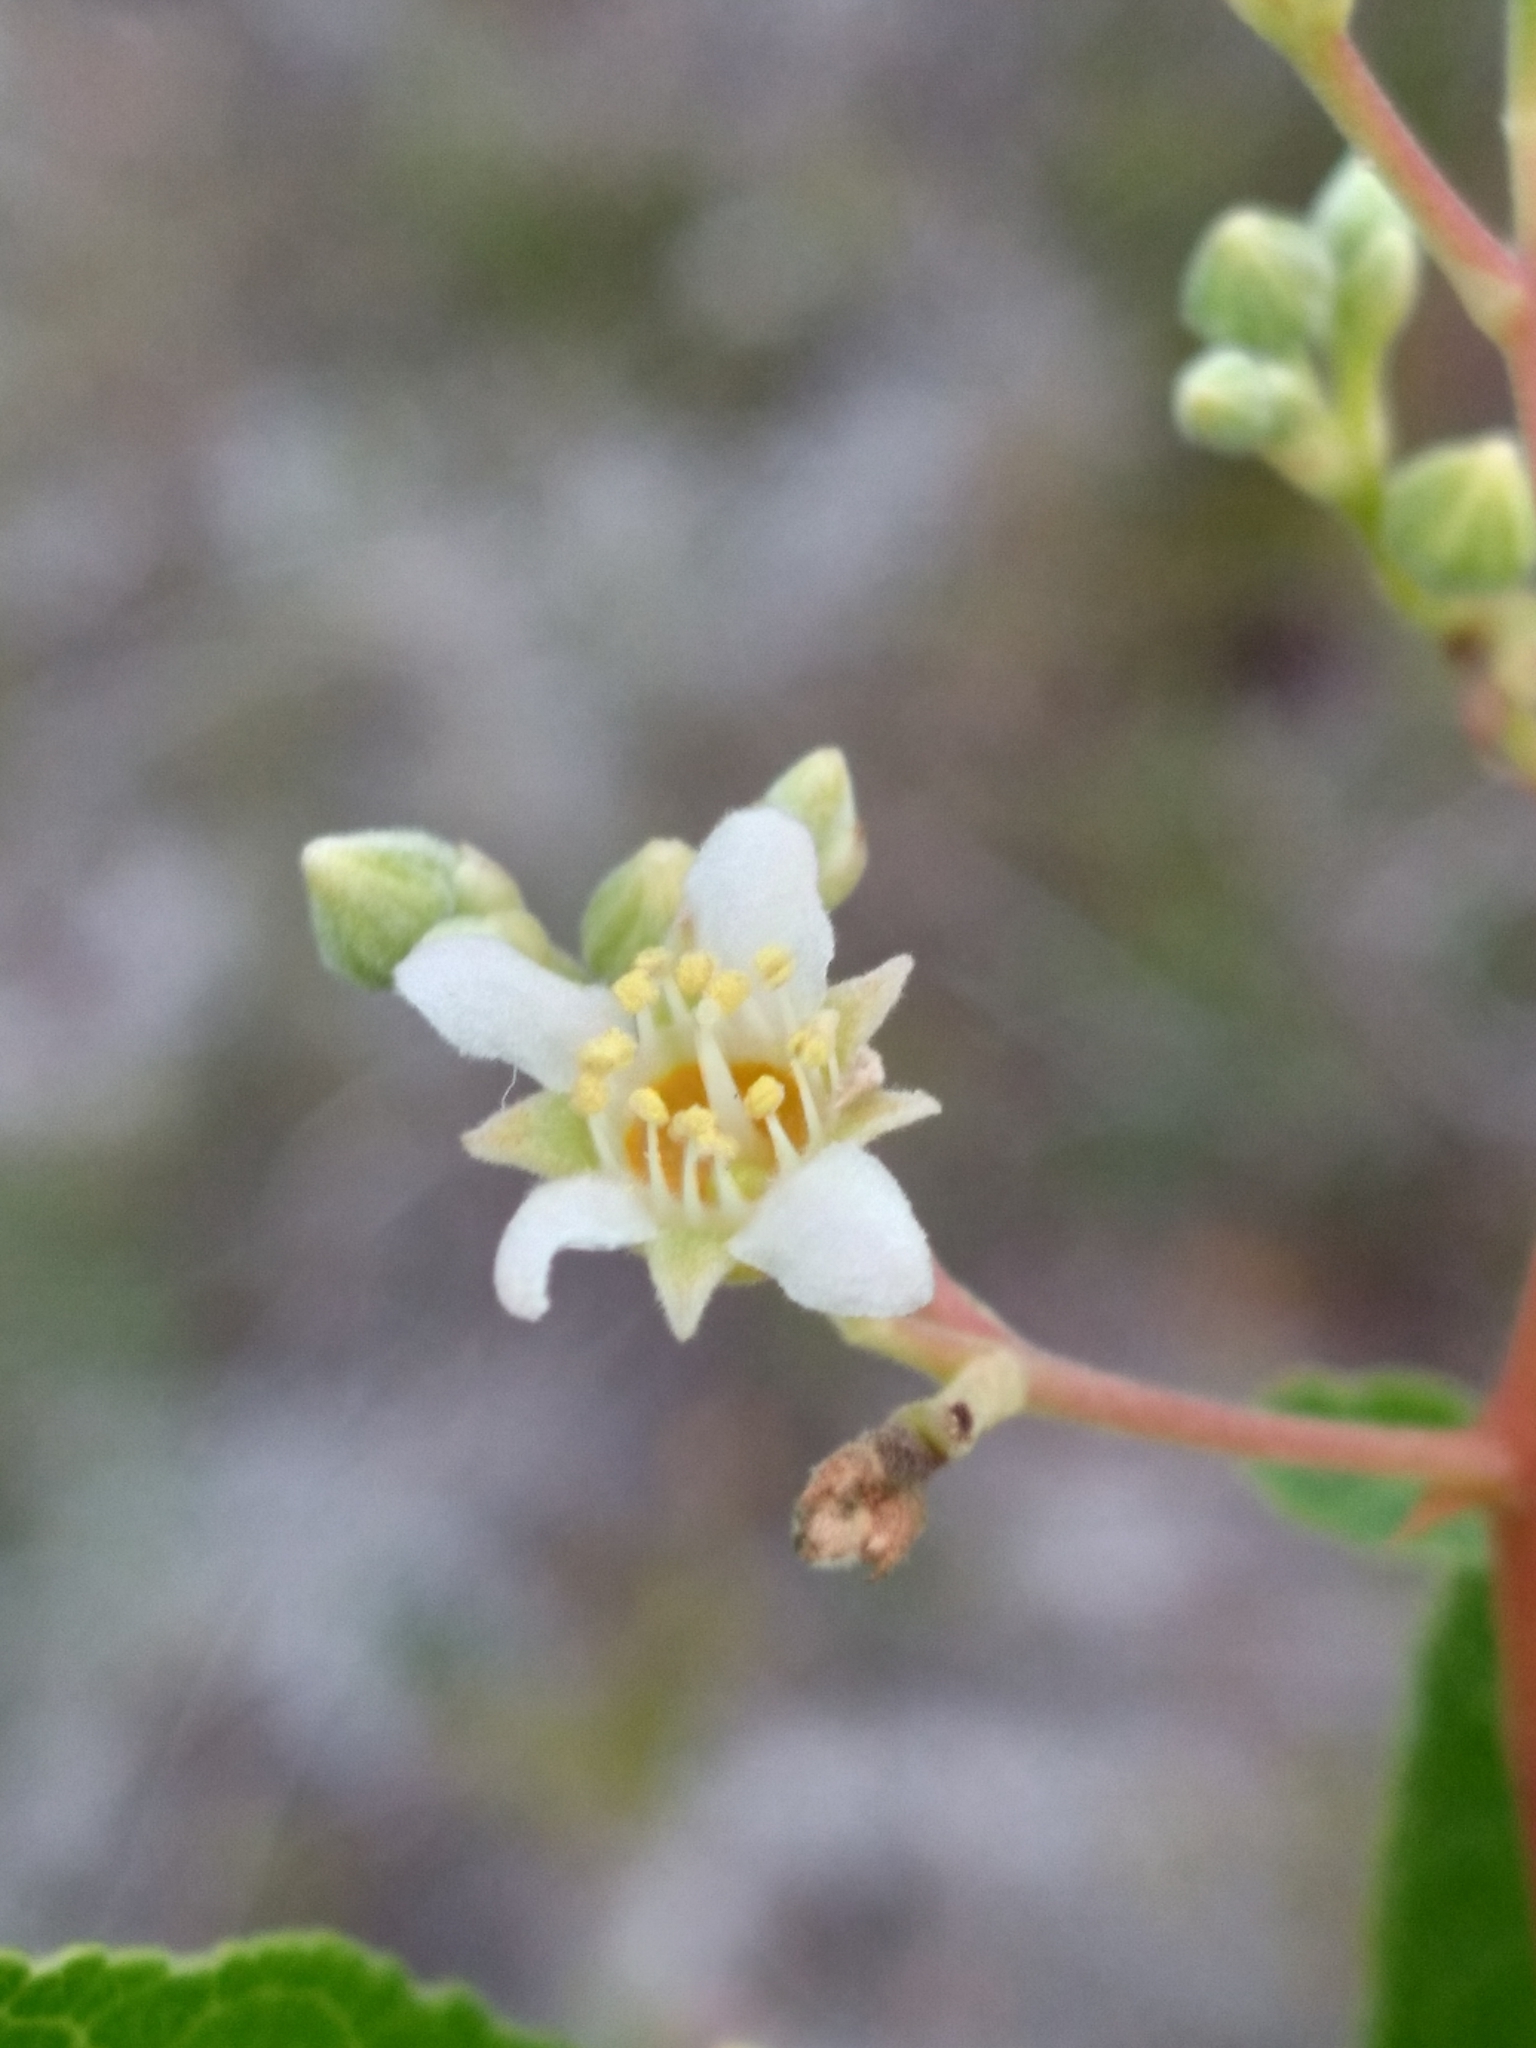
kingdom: Plantae
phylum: Tracheophyta
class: Magnoliopsida
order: Malpighiales
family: Chrysobalanaceae
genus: Geobalanus
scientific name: Geobalanus oblongifolius
